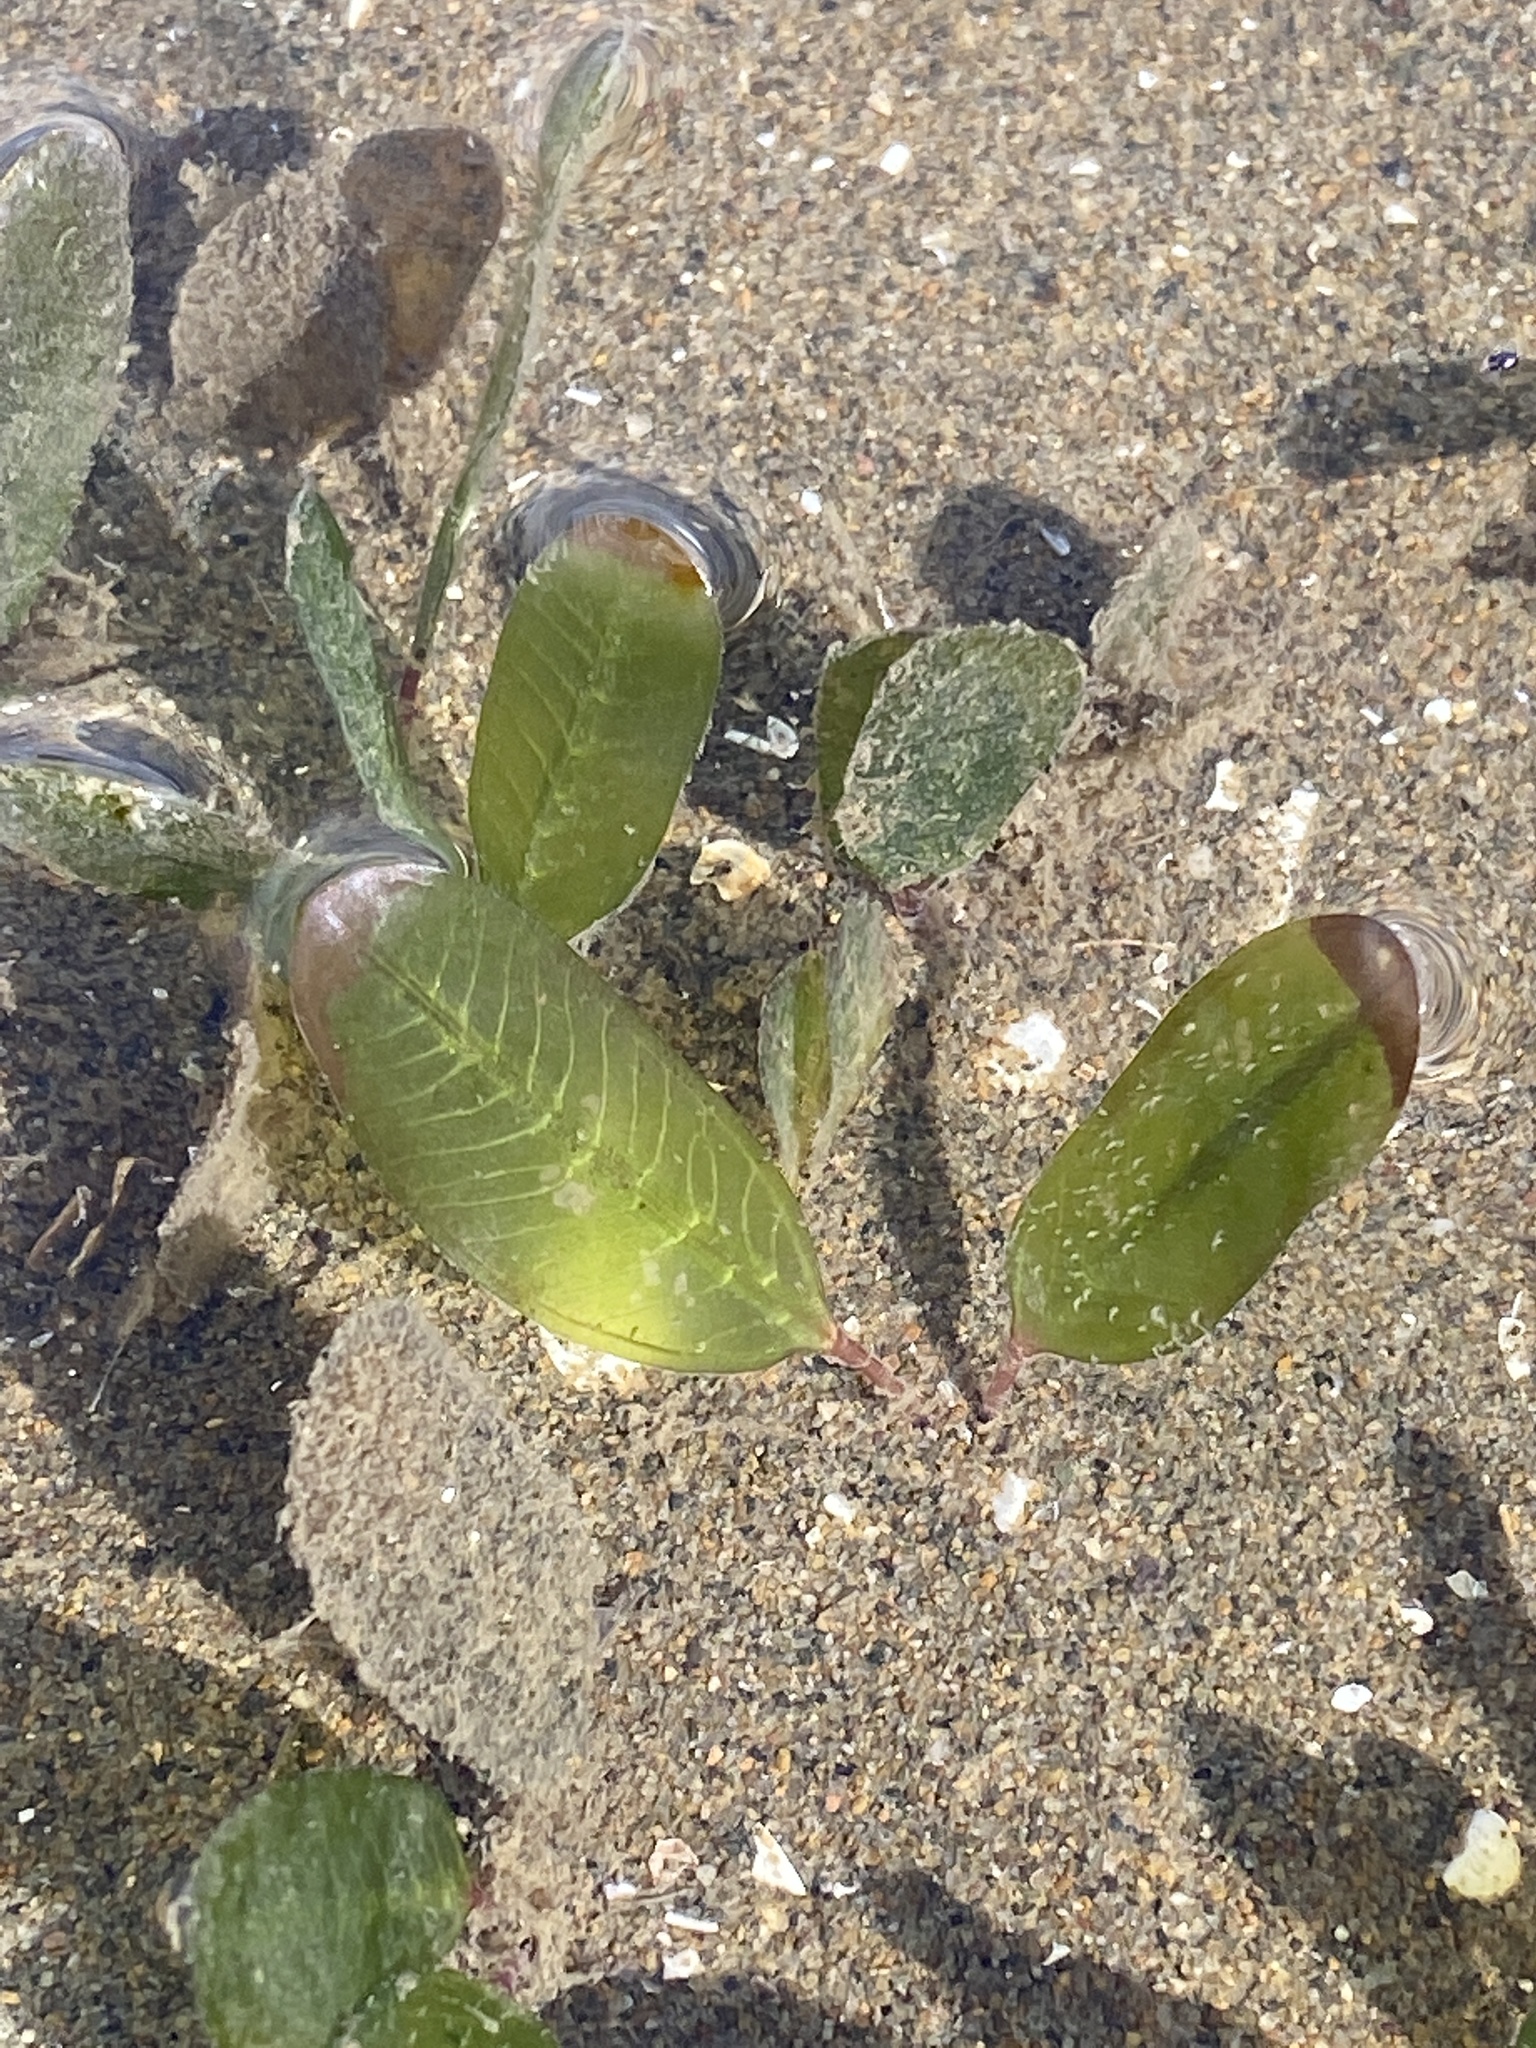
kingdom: Plantae
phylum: Tracheophyta
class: Liliopsida
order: Alismatales
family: Hydrocharitaceae
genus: Halophila
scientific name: Halophila ovalis
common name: Species code: ho
